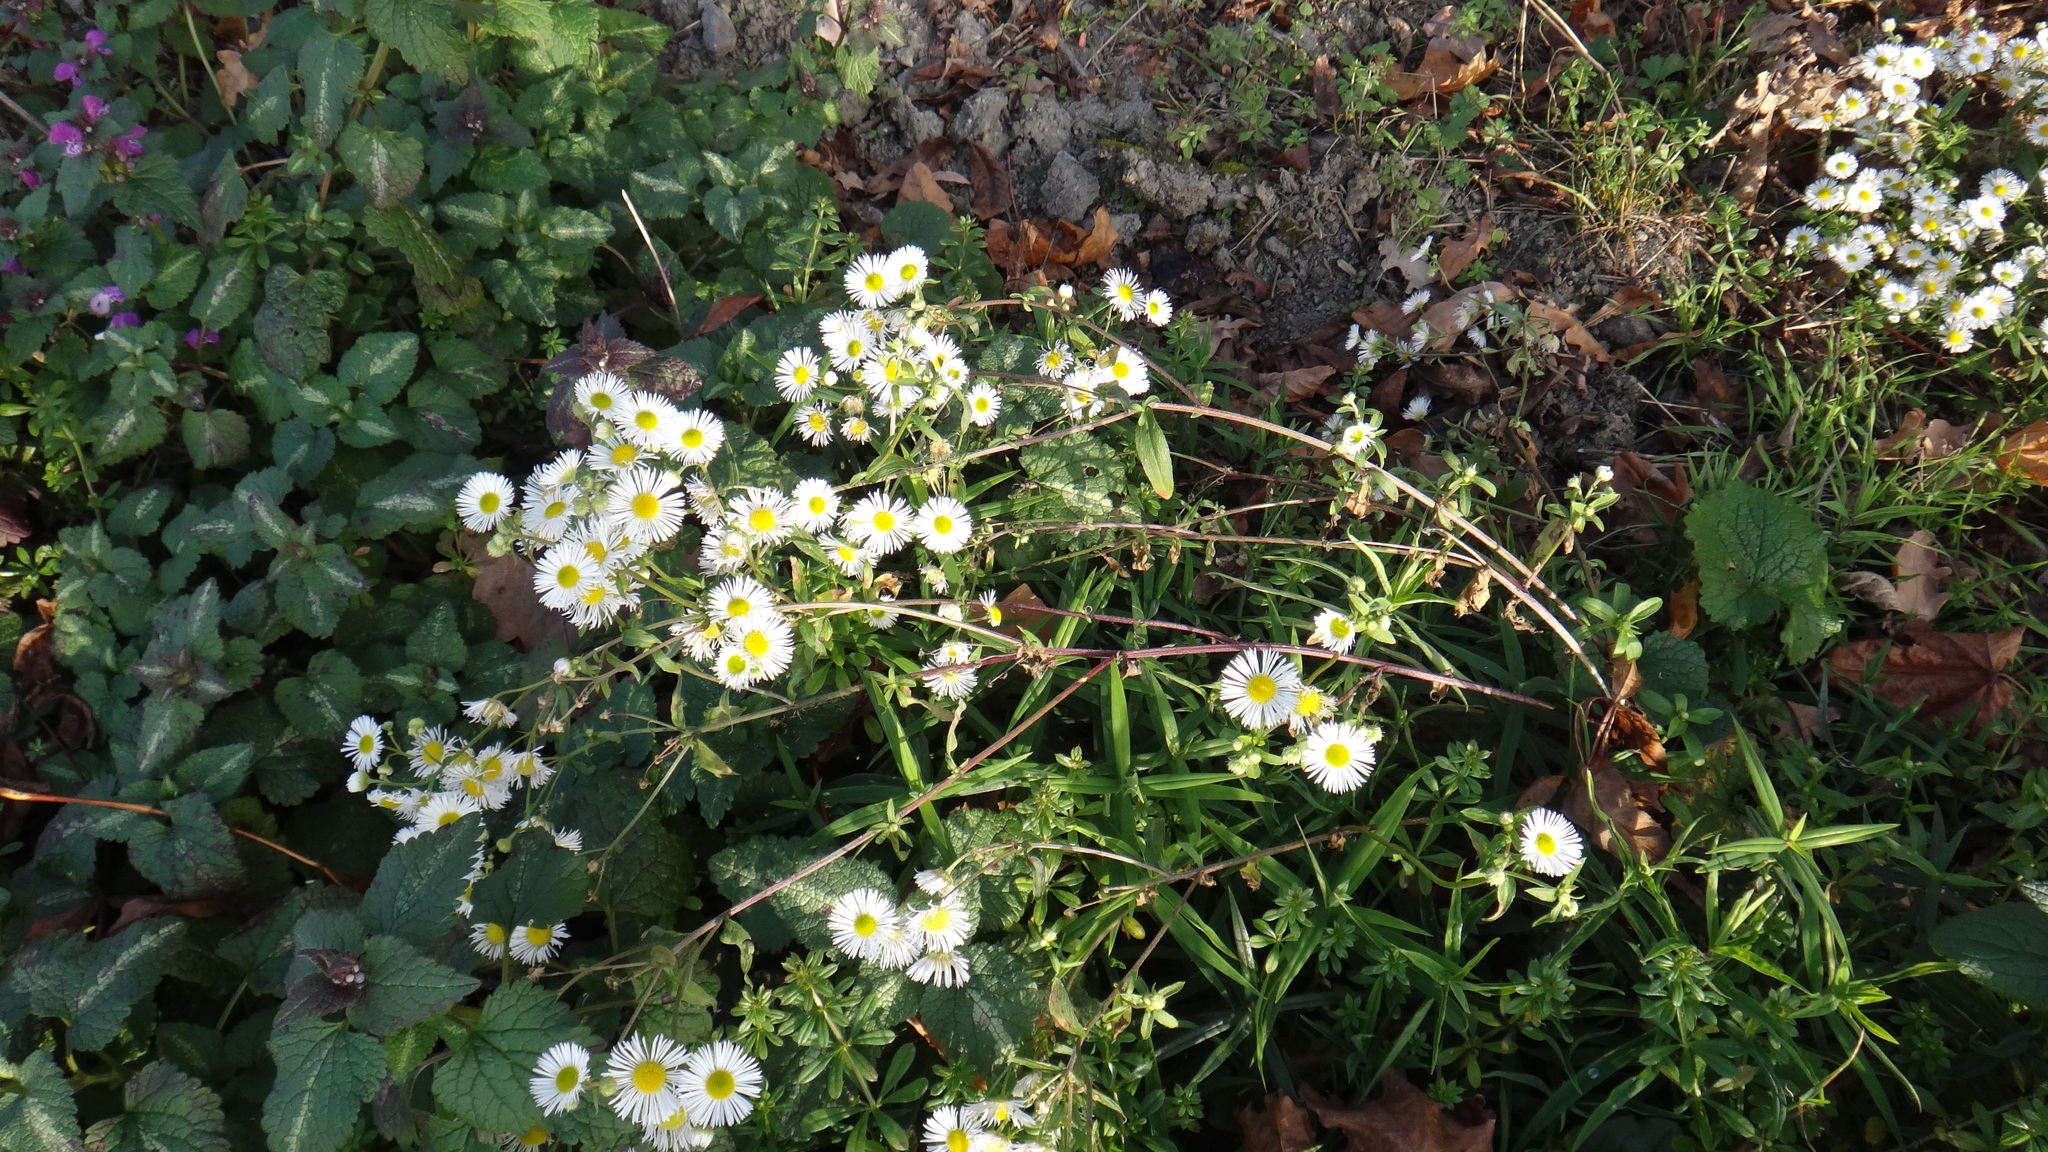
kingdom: Plantae
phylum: Tracheophyta
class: Magnoliopsida
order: Asterales
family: Asteraceae
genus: Erigeron
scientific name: Erigeron annuus
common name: Tall fleabane
